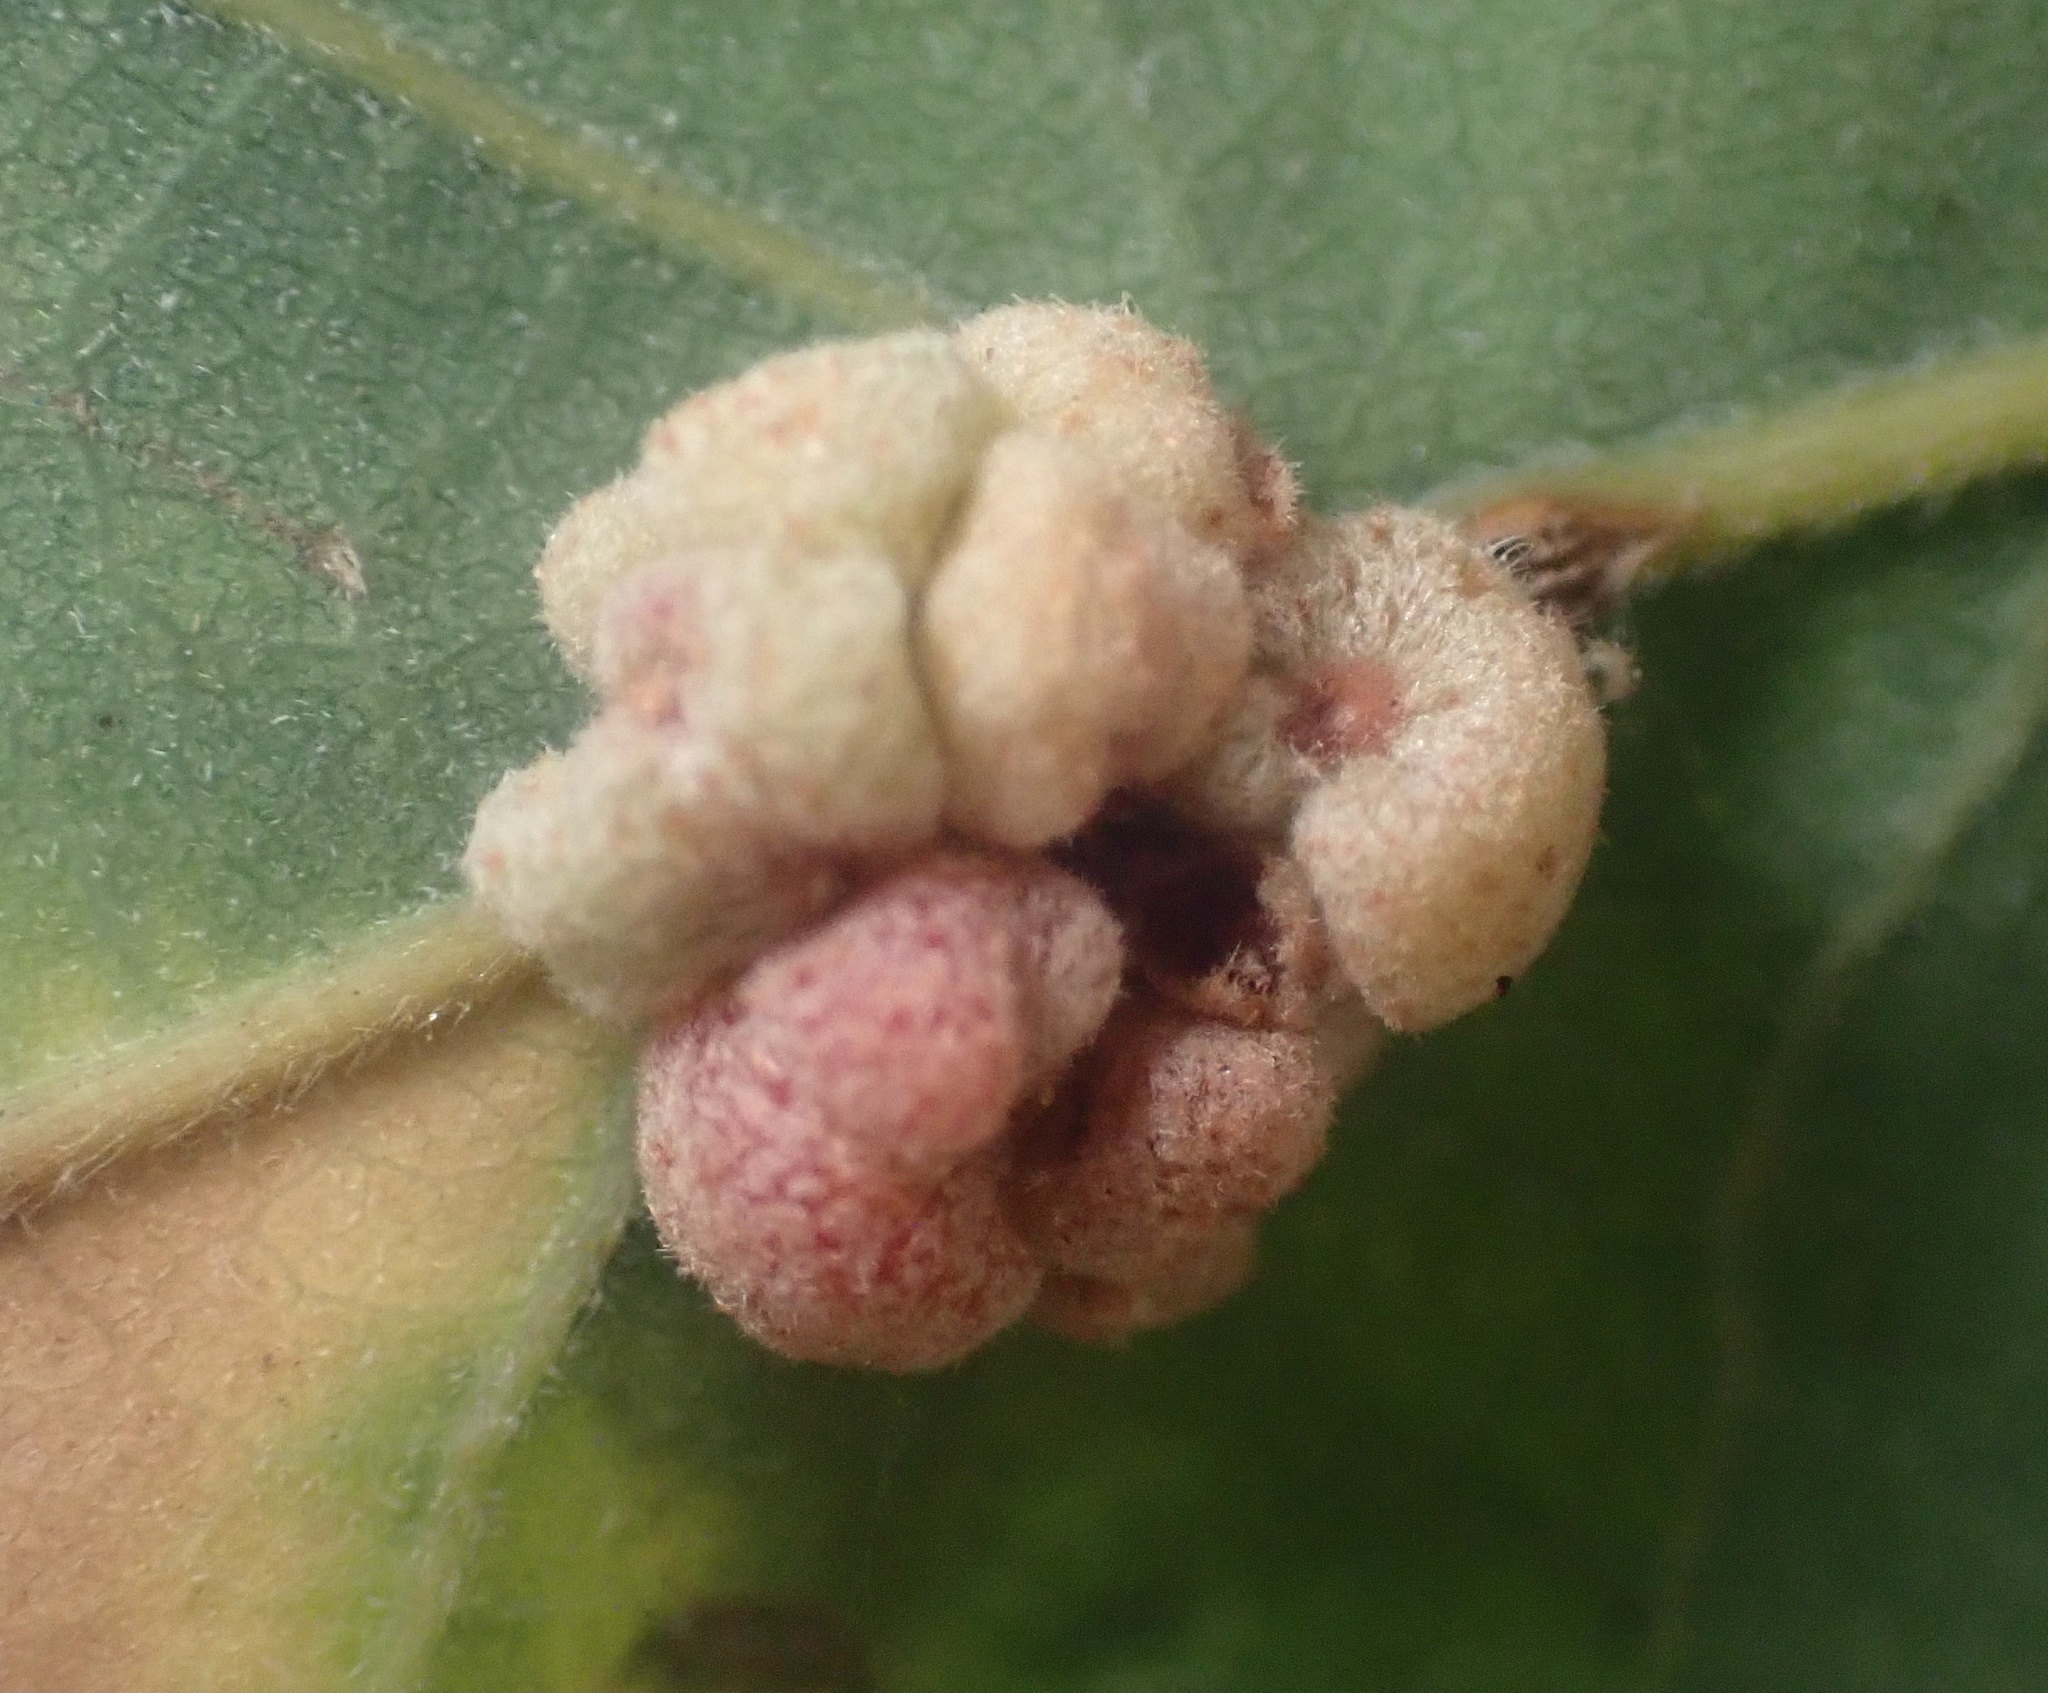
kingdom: Animalia
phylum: Arthropoda
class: Insecta
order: Hymenoptera
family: Cynipidae
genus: Andricus
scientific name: Andricus
